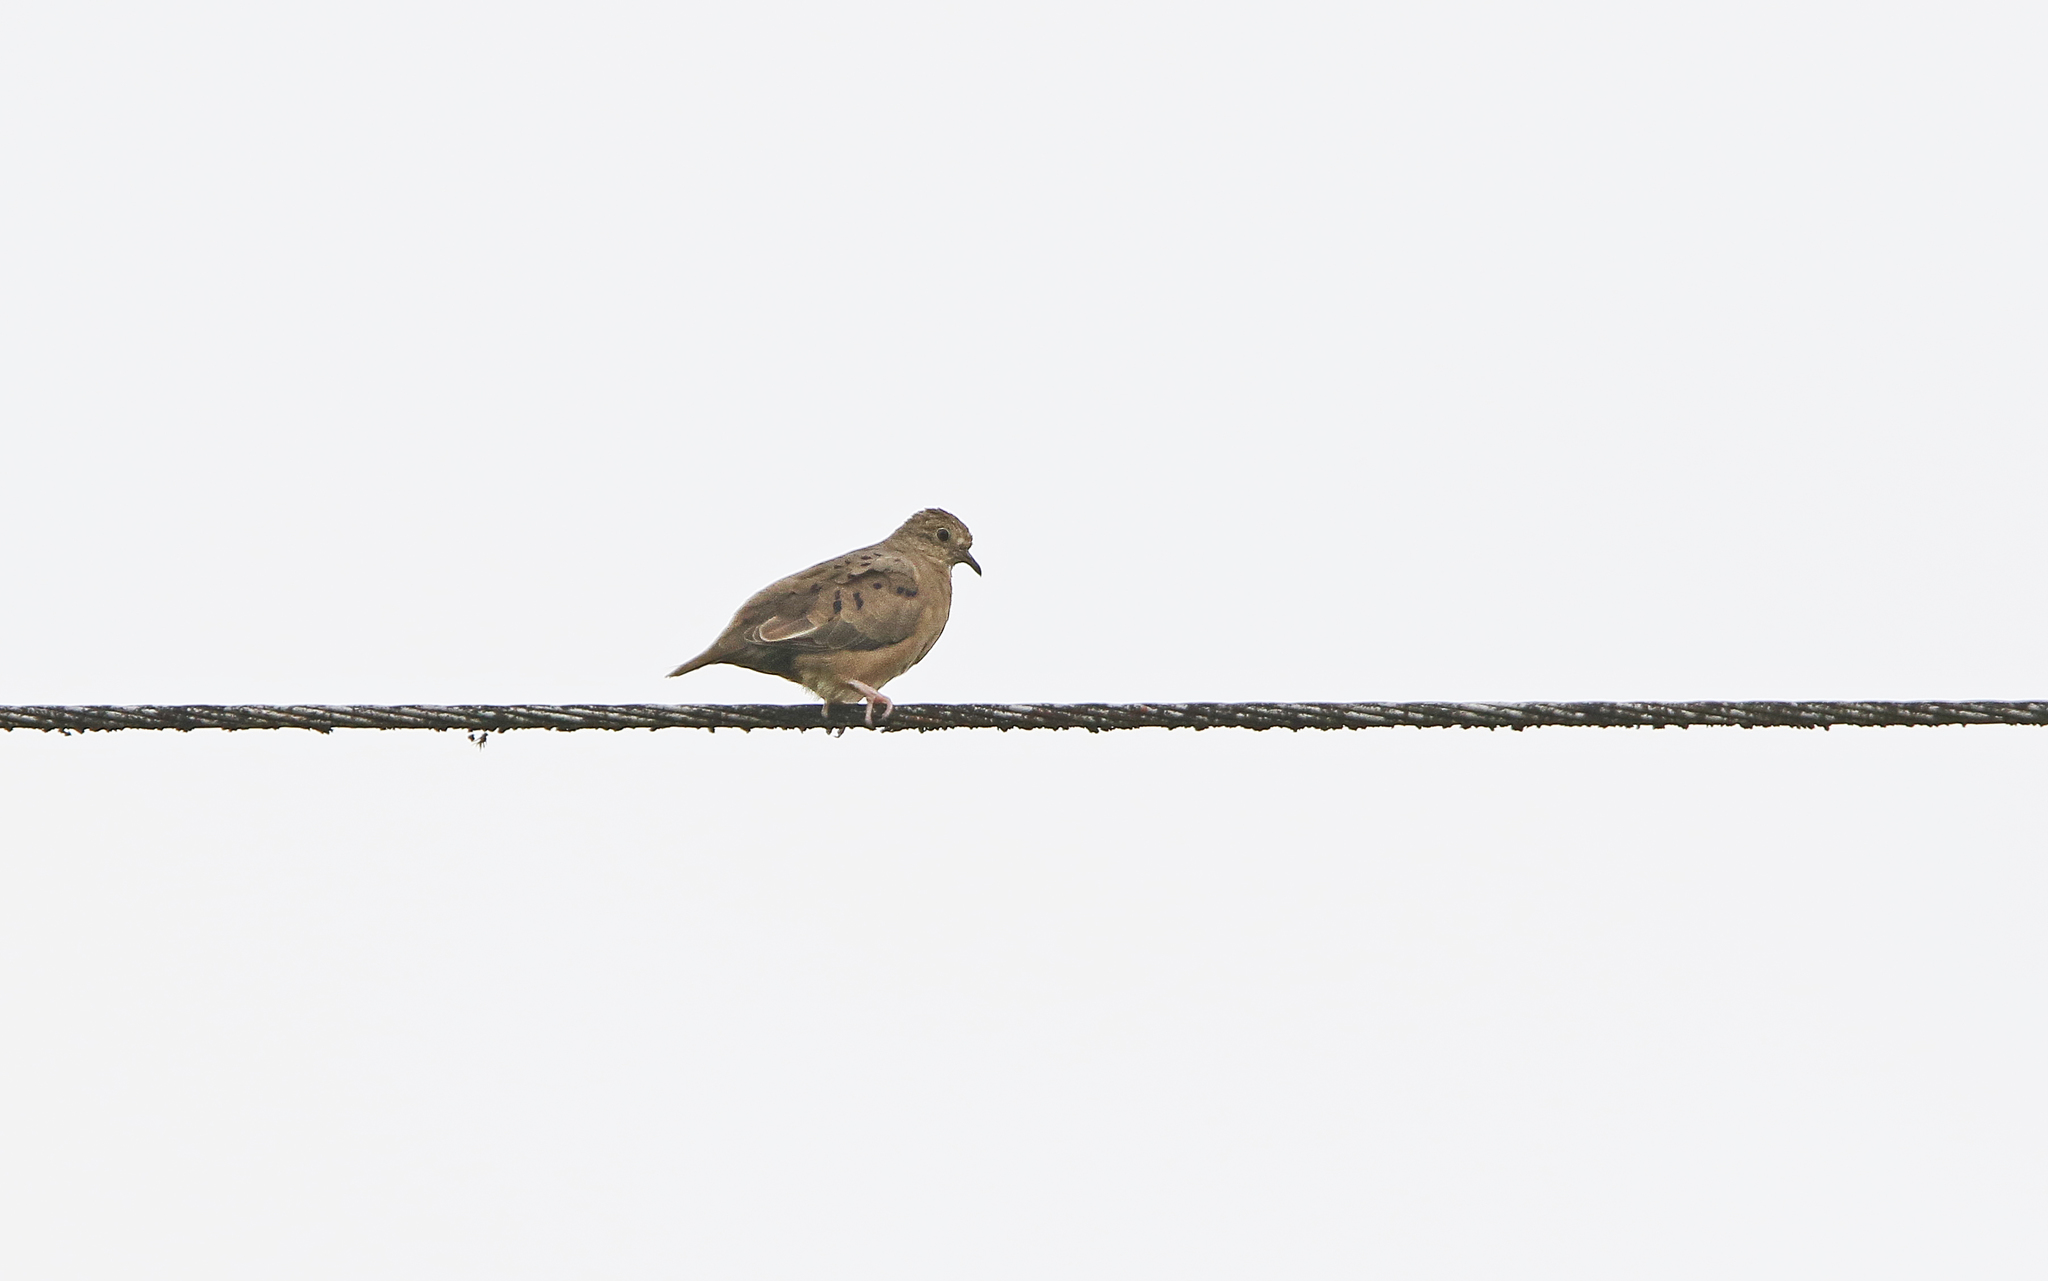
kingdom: Animalia
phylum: Chordata
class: Aves
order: Columbiformes
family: Columbidae
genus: Columbina
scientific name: Columbina buckleyi
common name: Ecuadorian ground dove
